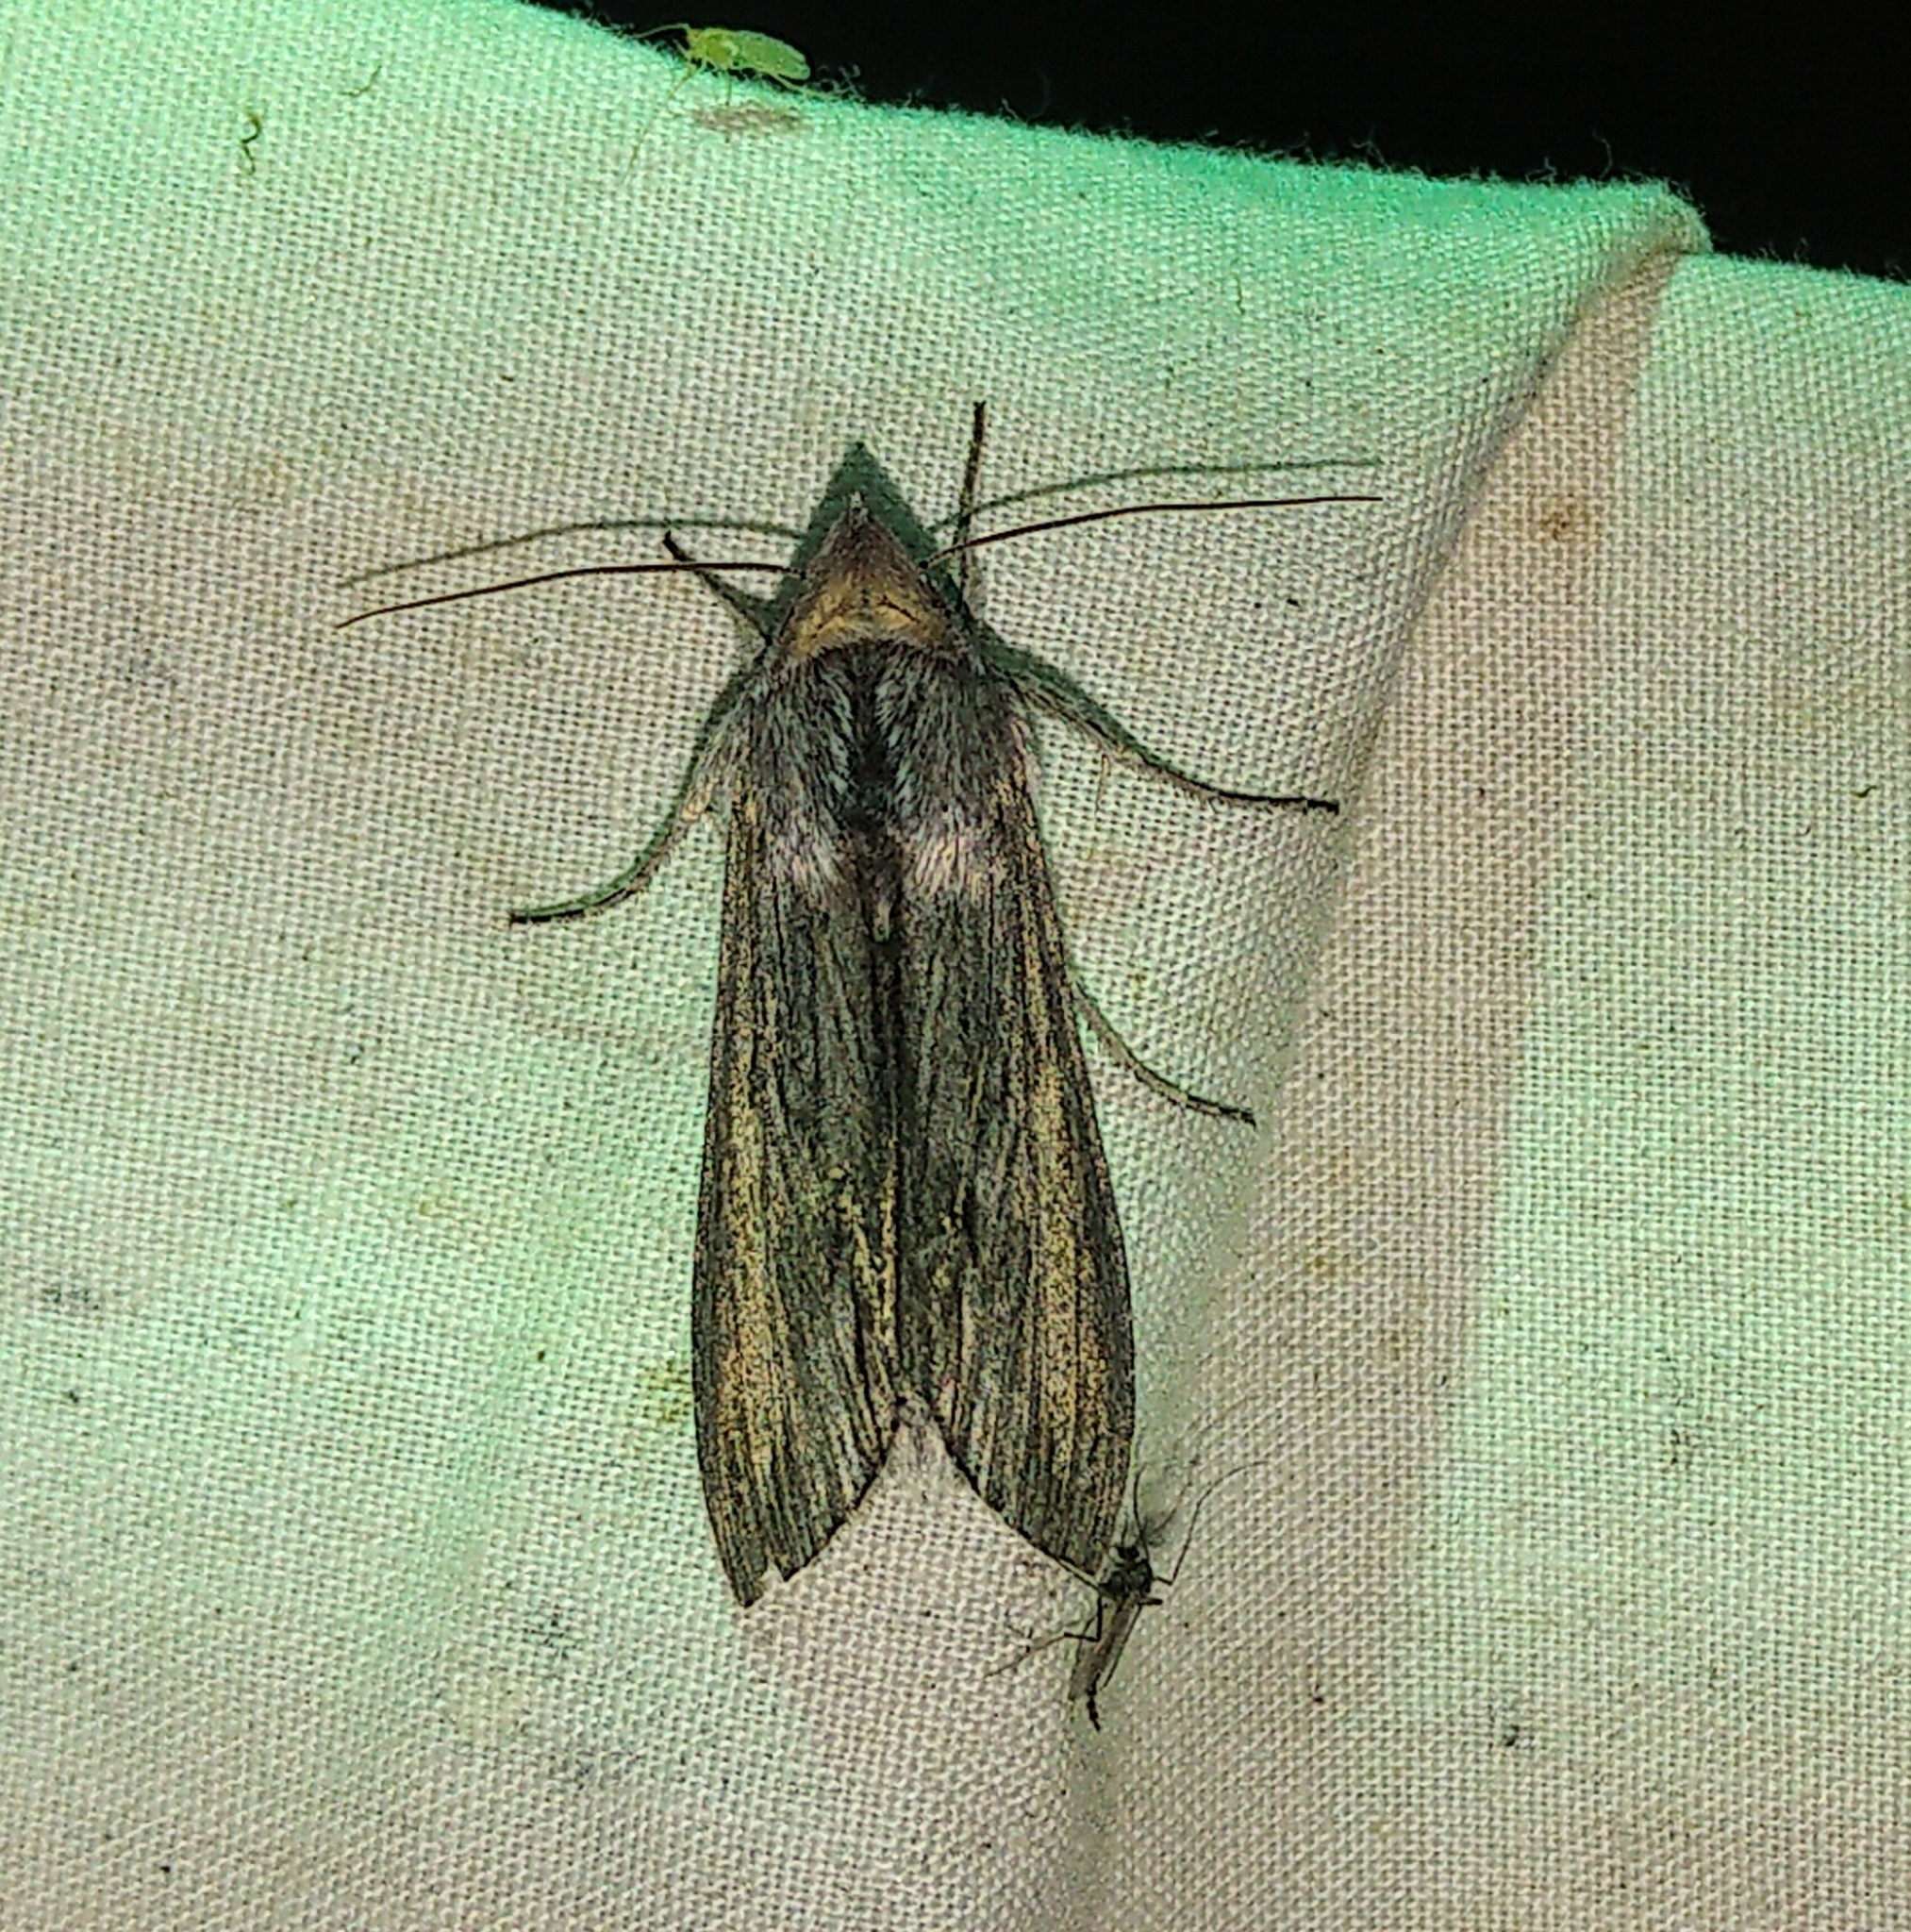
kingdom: Animalia
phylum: Arthropoda
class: Insecta
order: Lepidoptera
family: Noctuidae
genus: Cucullia
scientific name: Cucullia montanae
